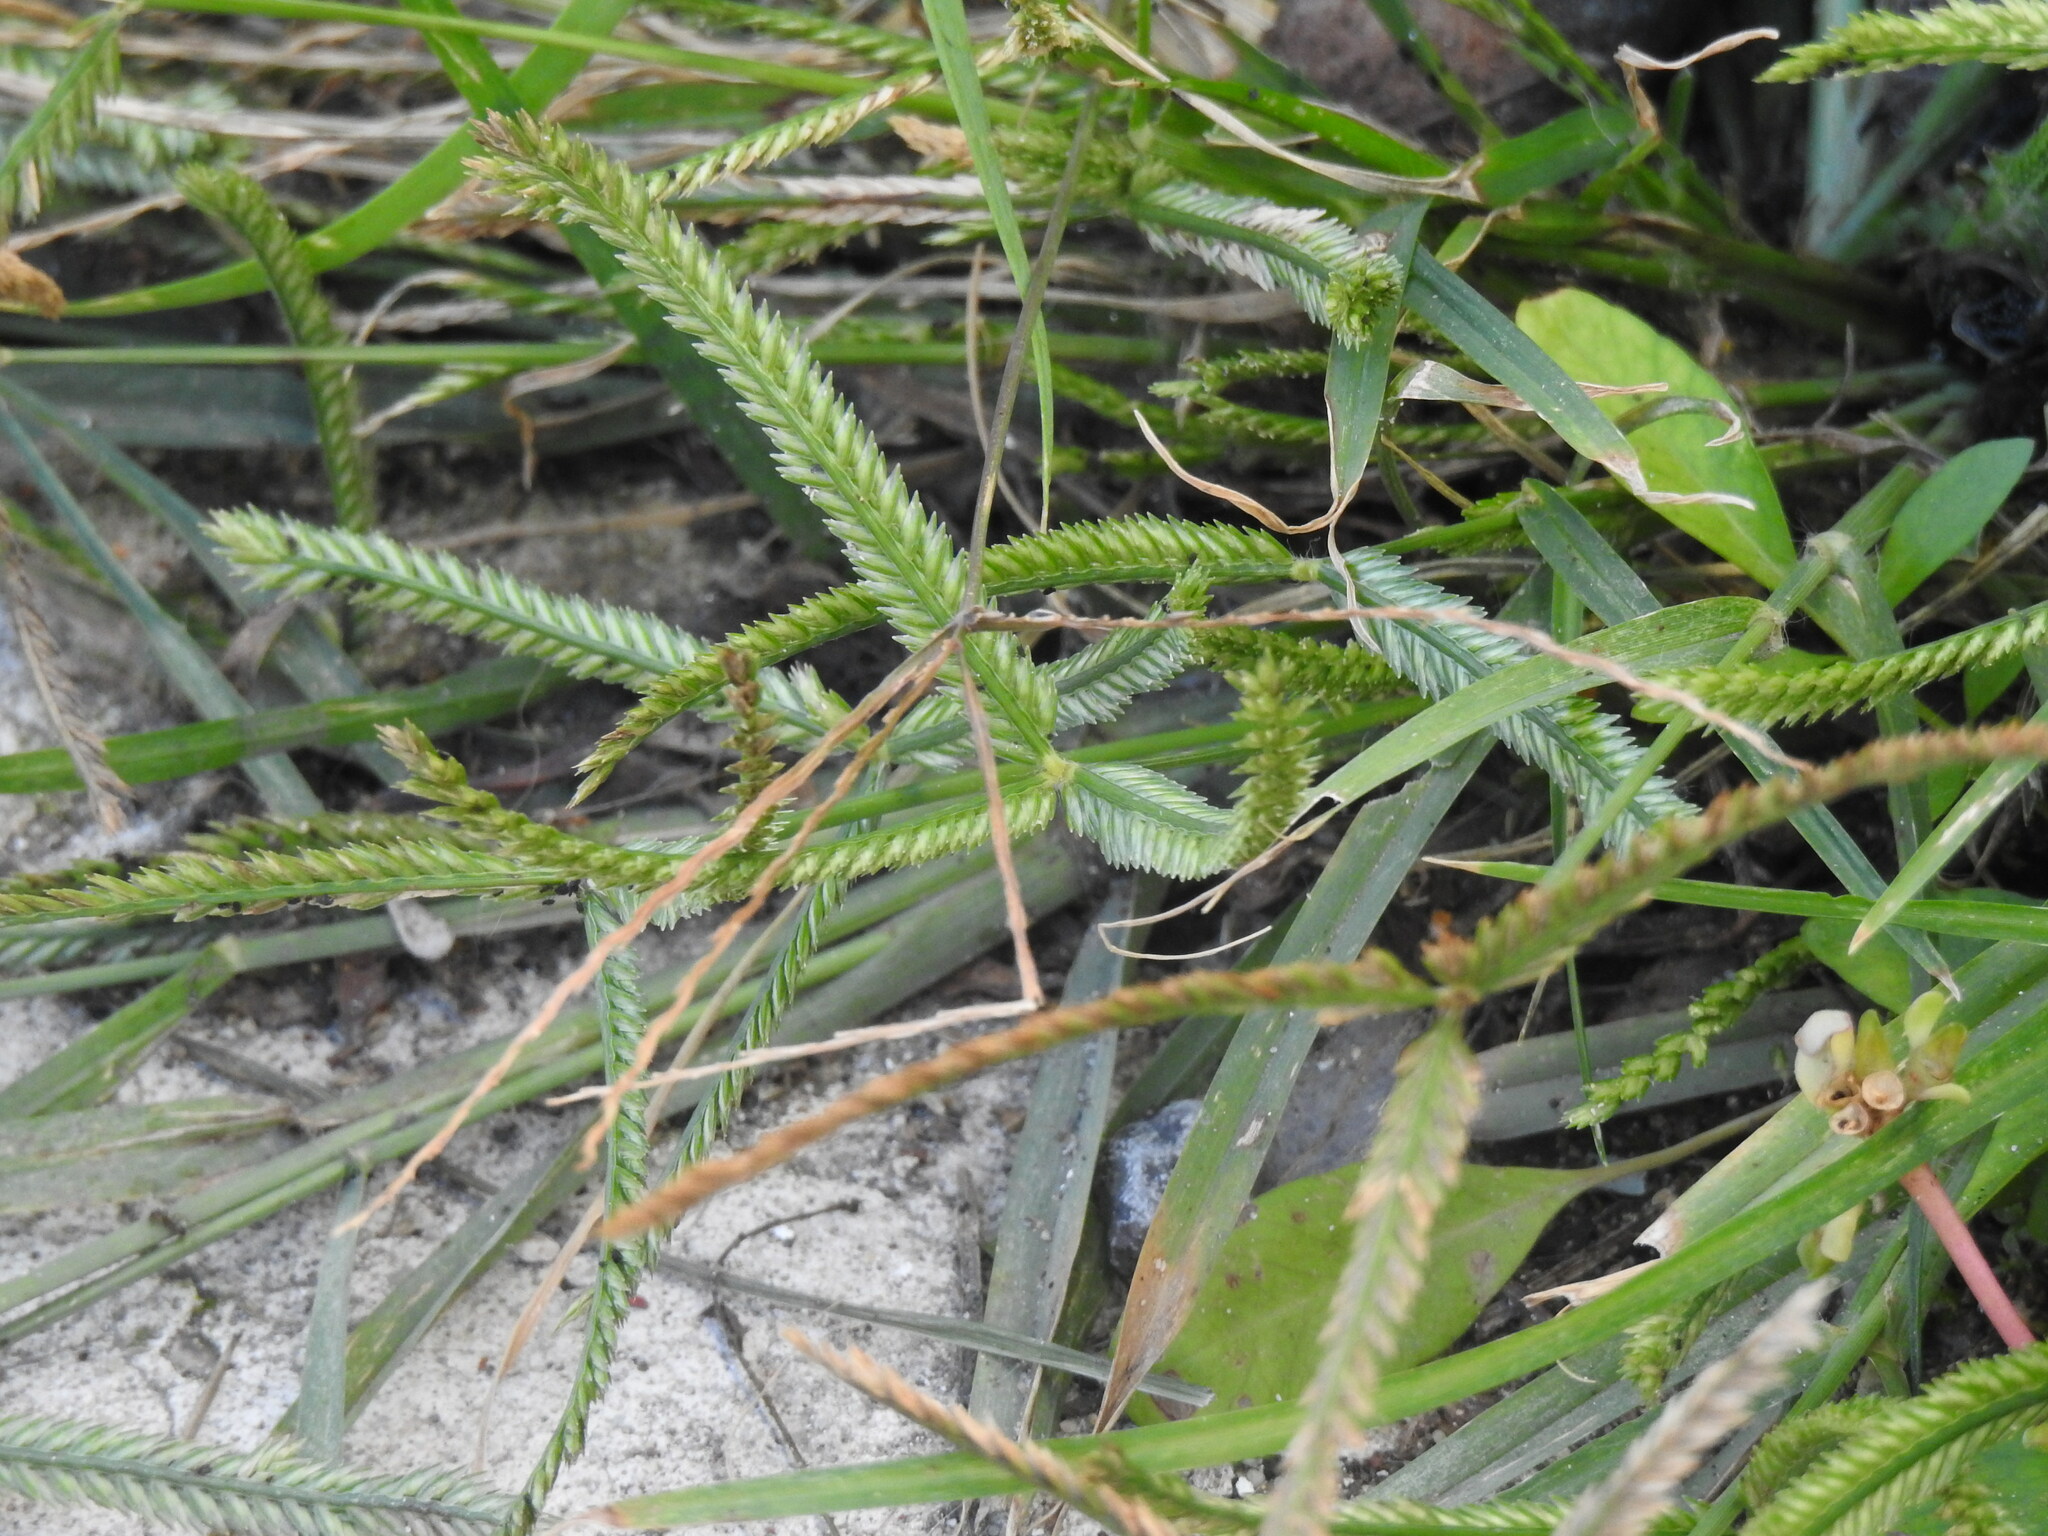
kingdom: Plantae
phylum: Tracheophyta
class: Liliopsida
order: Poales
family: Poaceae
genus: Eleusine
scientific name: Eleusine indica
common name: Yard-grass
